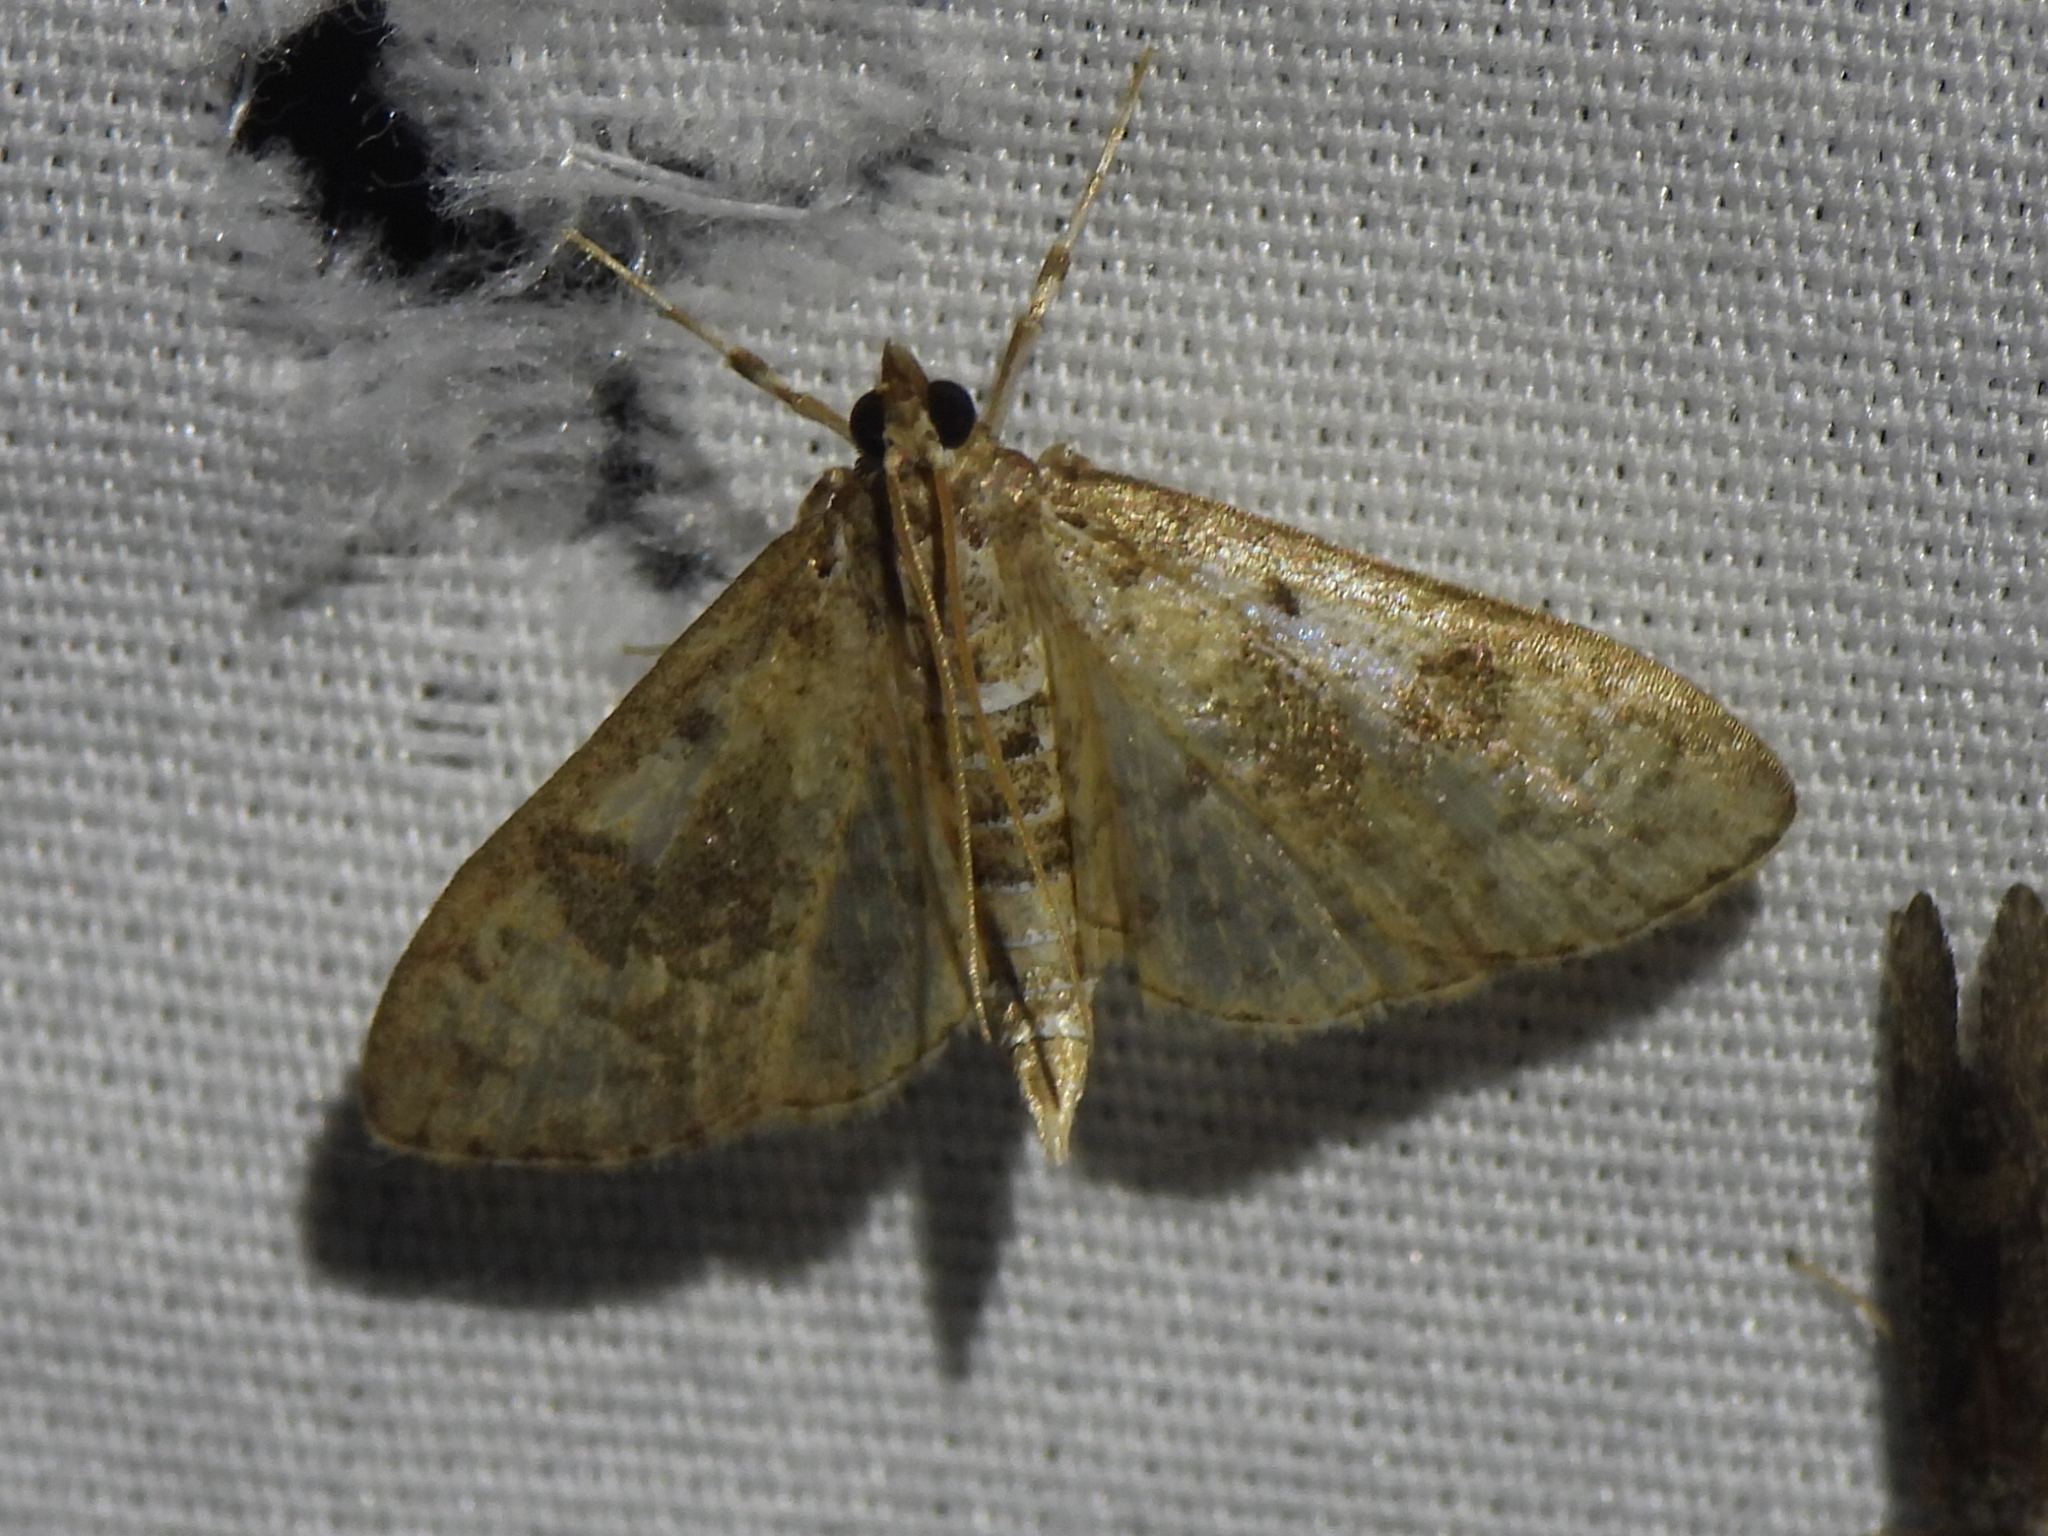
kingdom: Animalia
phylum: Arthropoda
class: Insecta
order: Lepidoptera
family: Crambidae
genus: Palpita
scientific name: Palpita freemanalis
